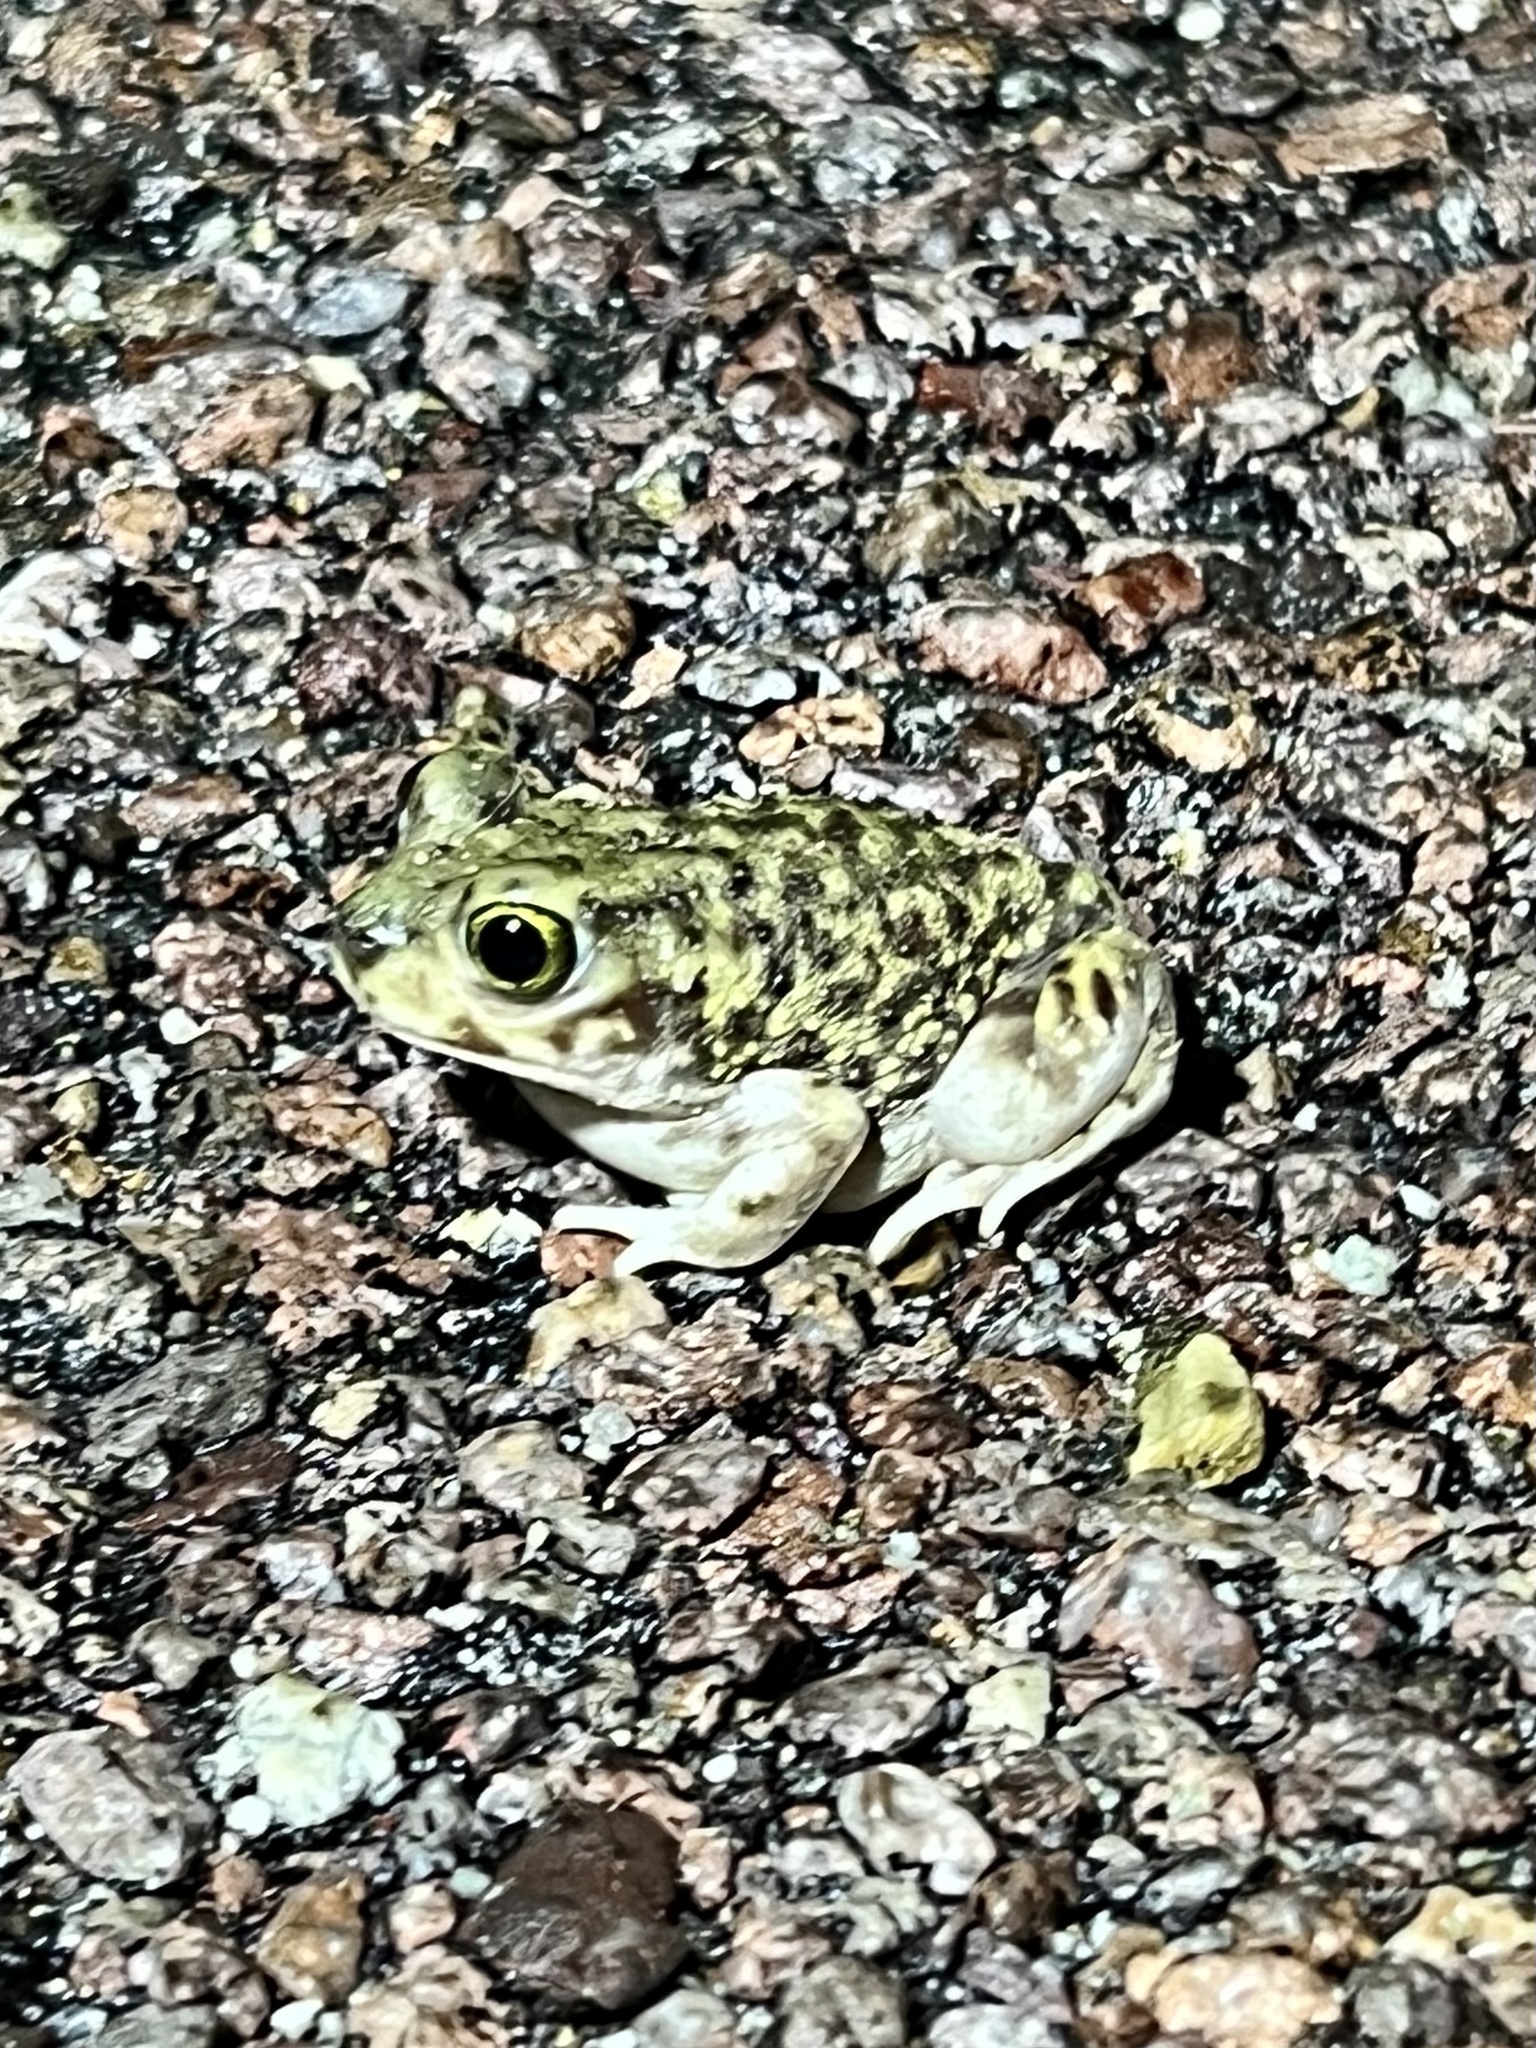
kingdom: Animalia
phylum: Chordata
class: Amphibia
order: Anura
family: Scaphiopodidae
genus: Scaphiopus
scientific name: Scaphiopus couchii
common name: Couch's spadefoot toad
